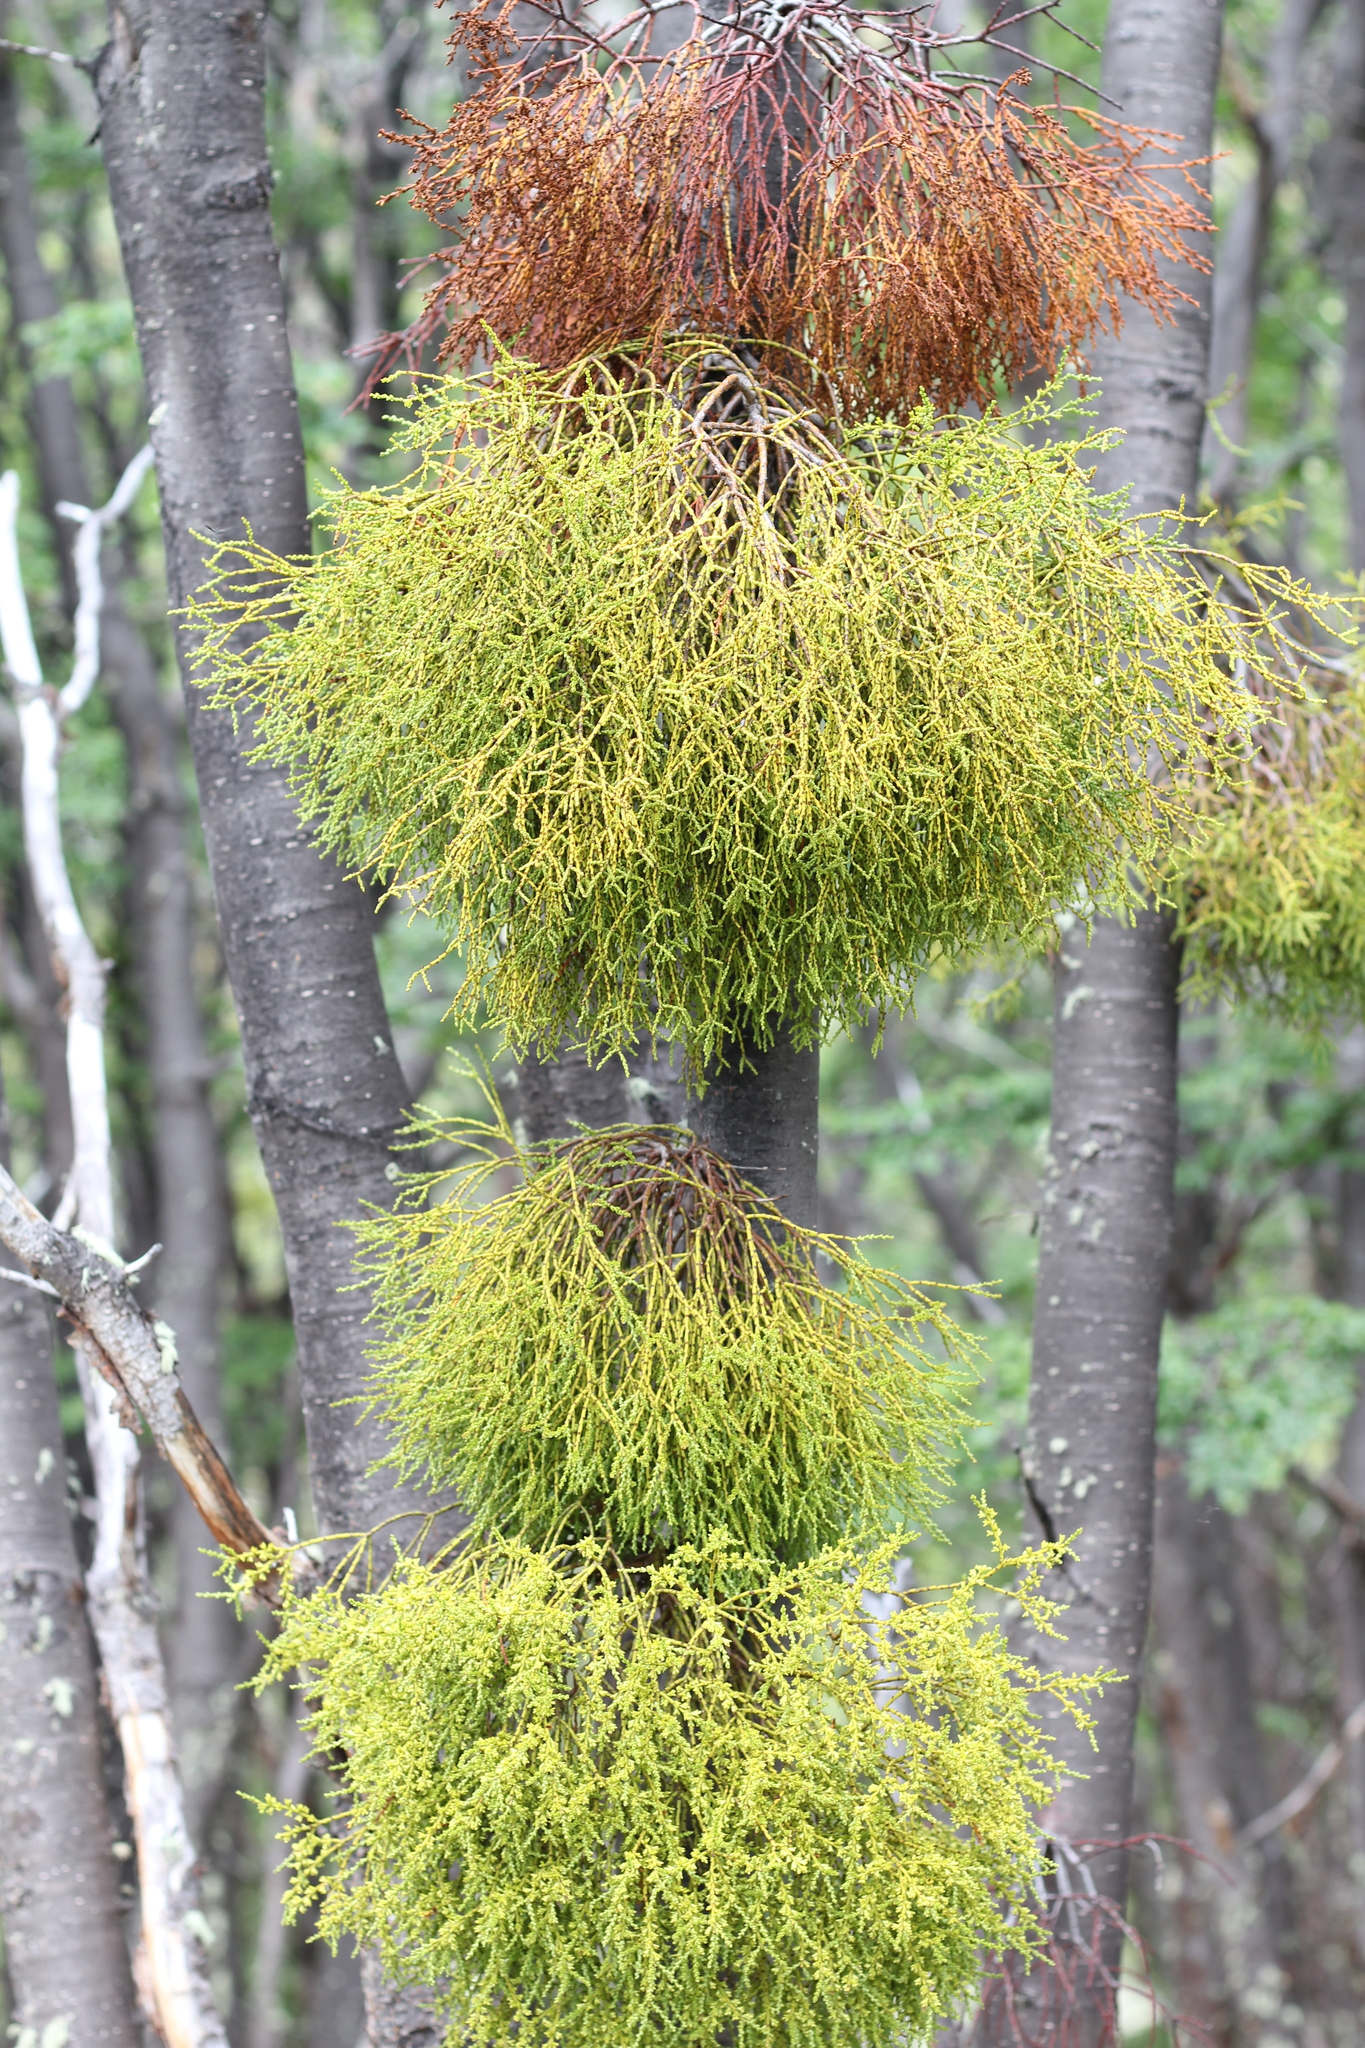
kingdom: Plantae
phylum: Tracheophyta
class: Magnoliopsida
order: Santalales
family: Misodendraceae
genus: Misodendrum
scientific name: Misodendrum punctulatum
